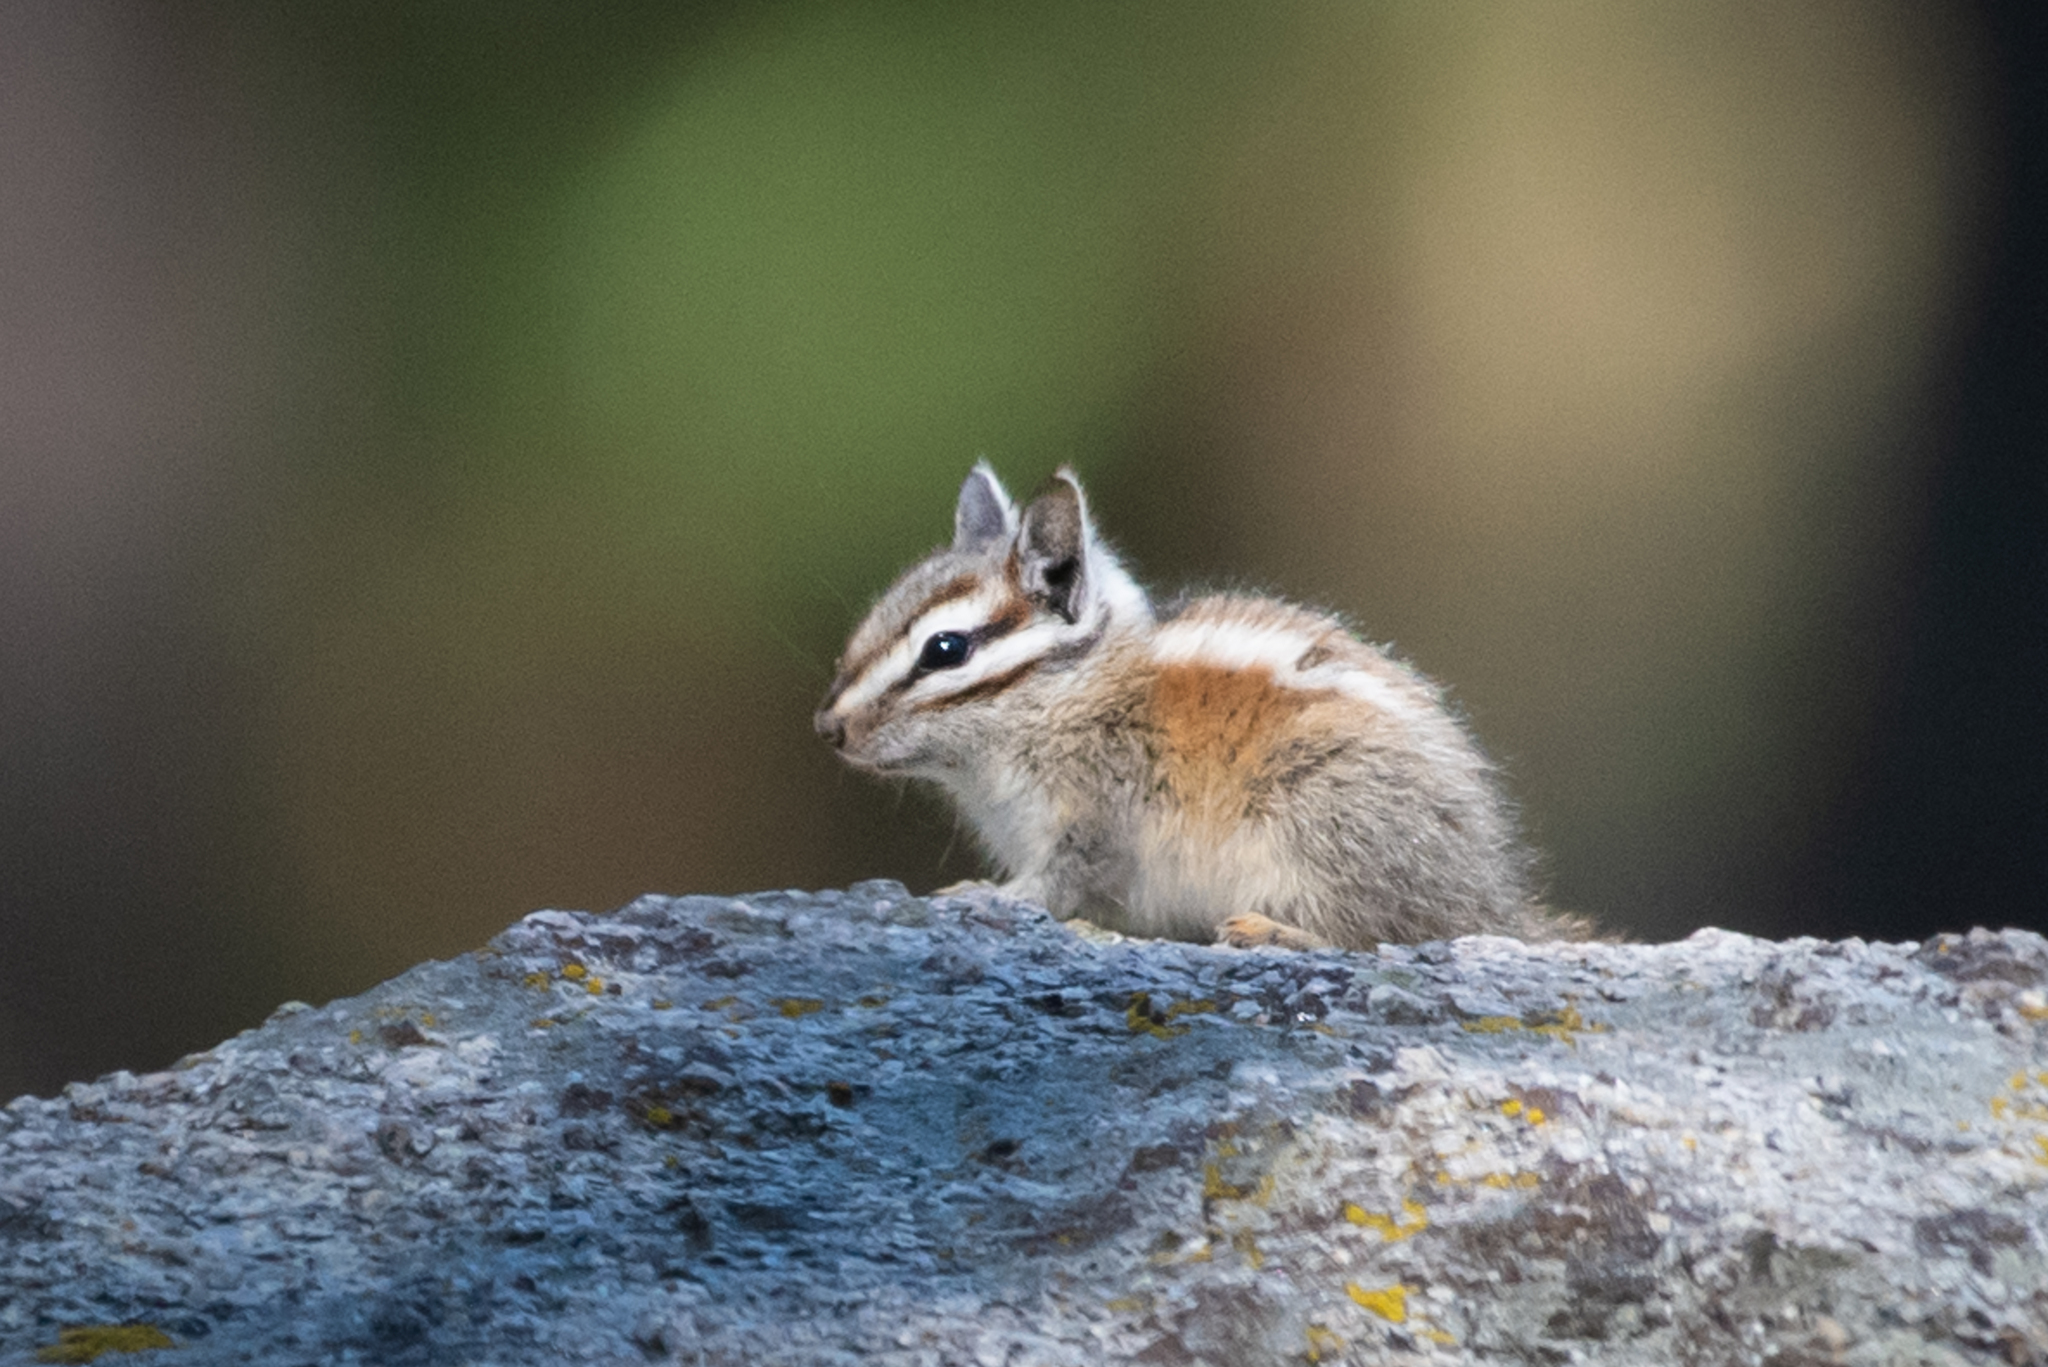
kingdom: Animalia
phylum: Chordata
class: Mammalia
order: Rodentia
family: Sciuridae
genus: Tamias
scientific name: Tamias speciosus
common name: Lodgepole chipmunk
